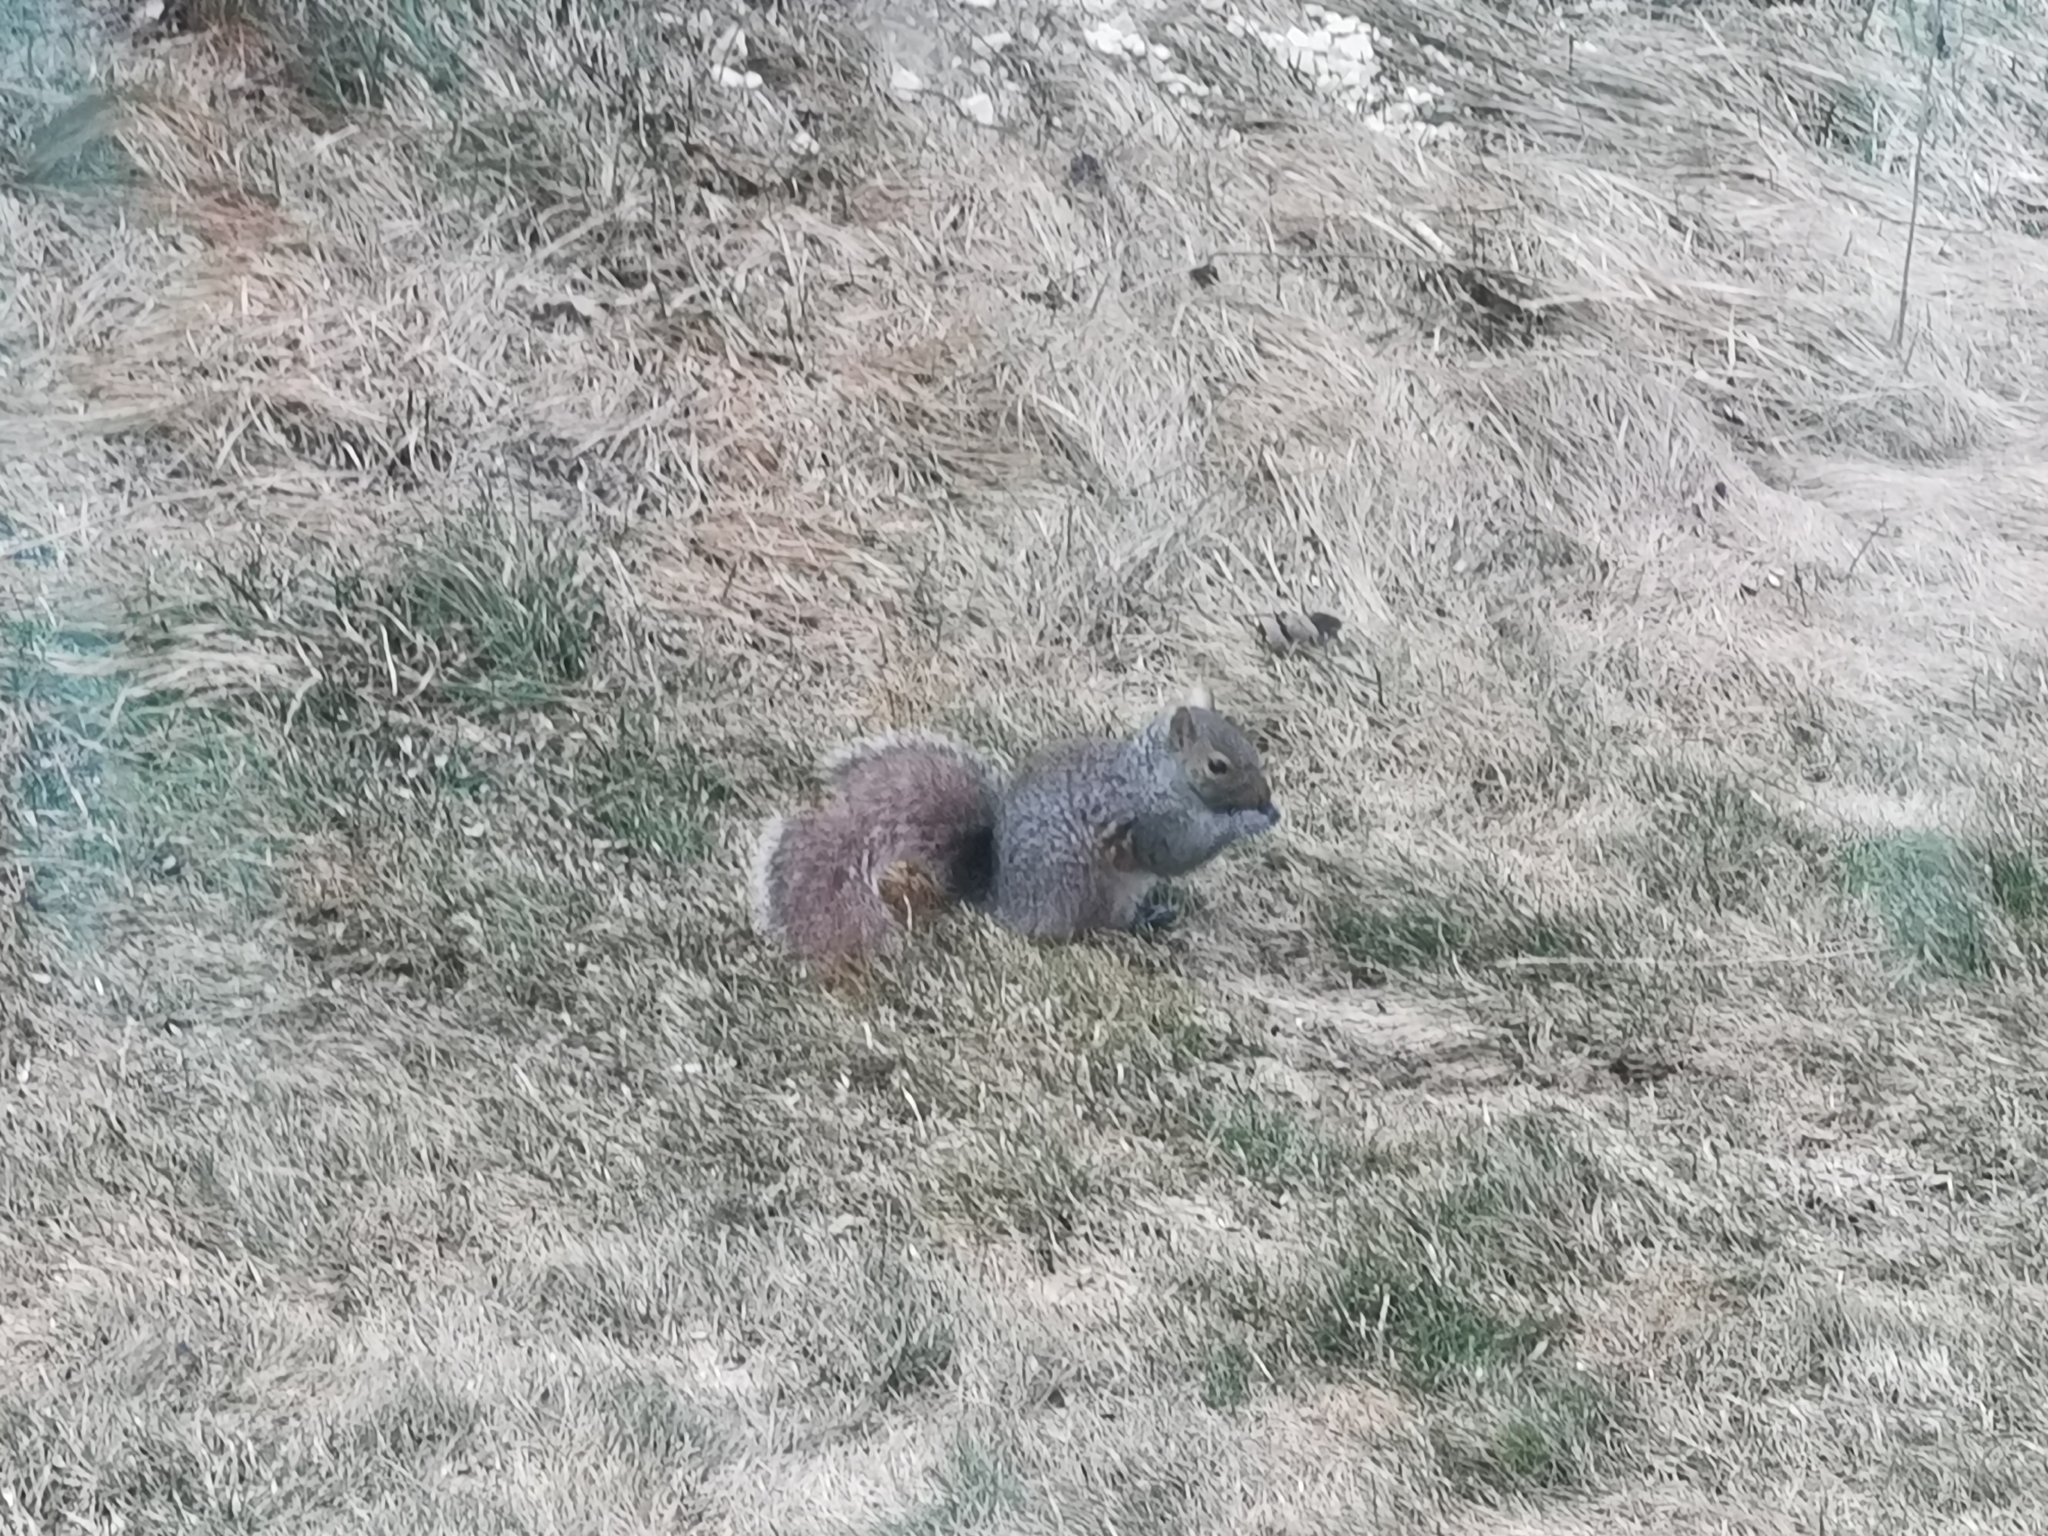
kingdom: Animalia
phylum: Chordata
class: Mammalia
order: Rodentia
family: Sciuridae
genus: Sciurus
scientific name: Sciurus carolinensis
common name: Eastern gray squirrel
